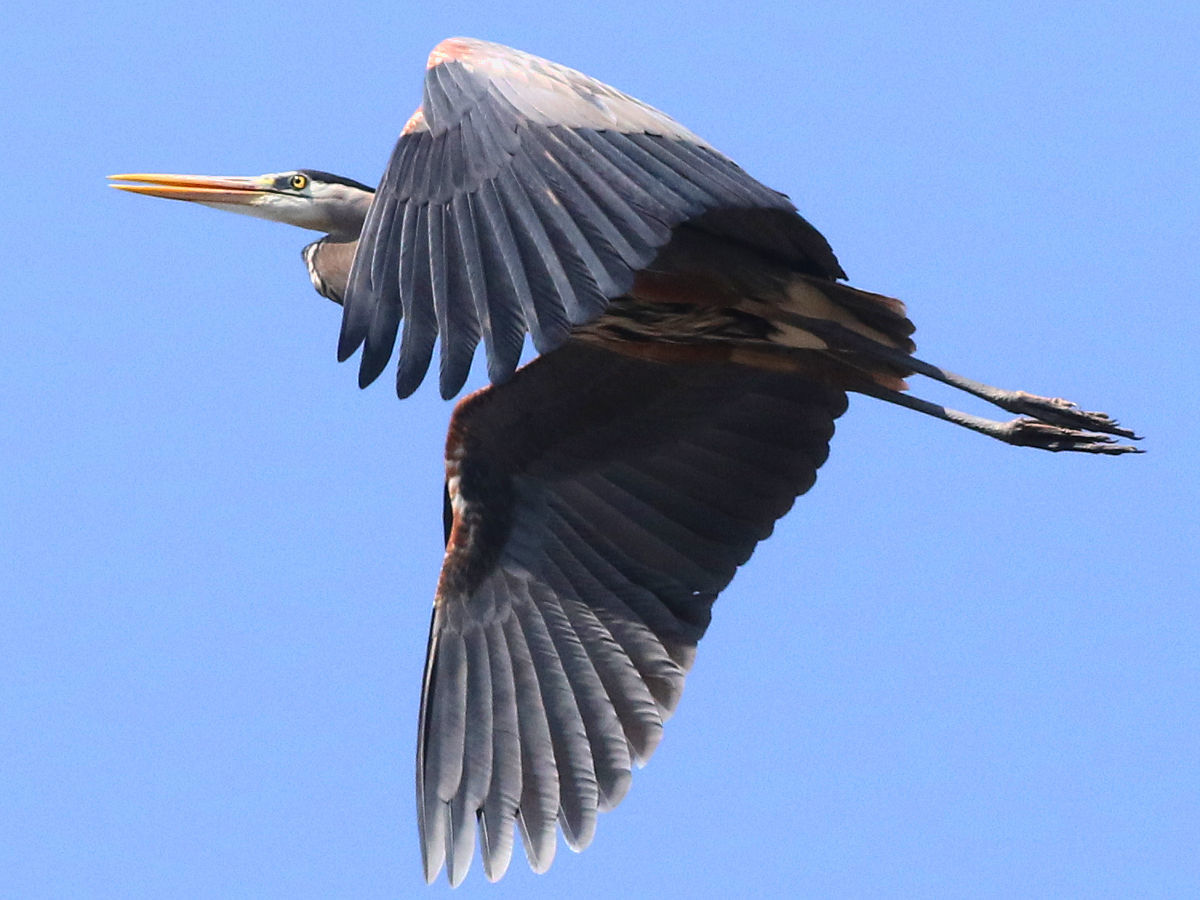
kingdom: Animalia
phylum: Chordata
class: Aves
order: Pelecaniformes
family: Ardeidae
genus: Ardea
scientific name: Ardea herodias
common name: Great blue heron
